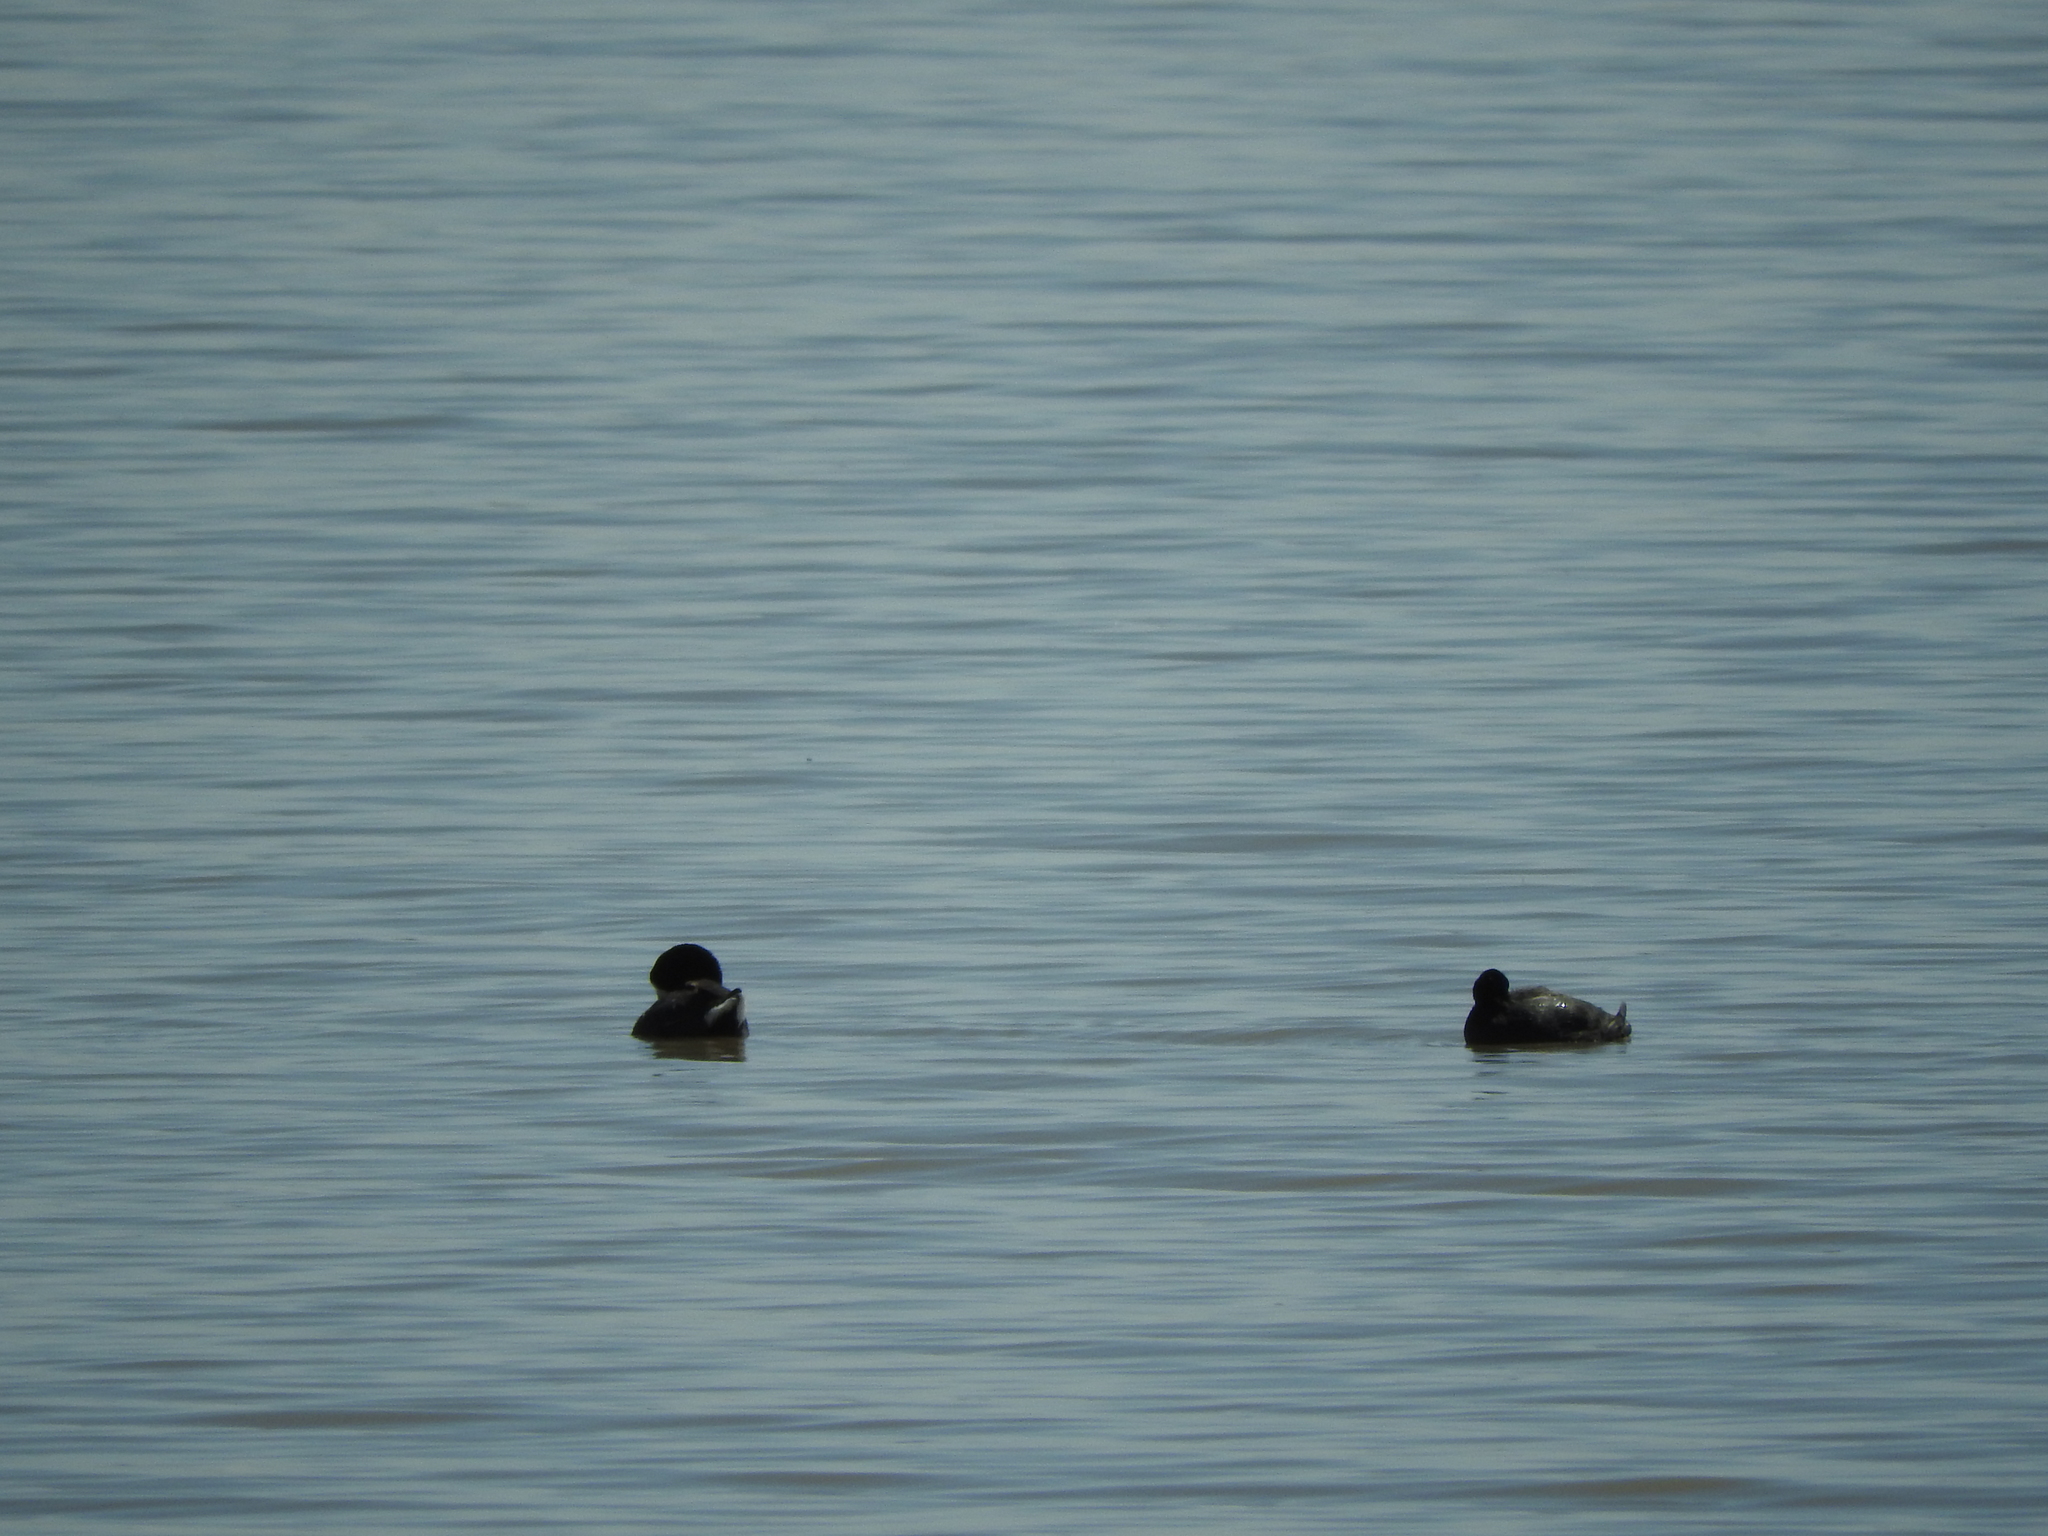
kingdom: Animalia
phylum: Chordata
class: Aves
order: Gruiformes
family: Rallidae
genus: Fulica
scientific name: Fulica americana
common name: American coot
